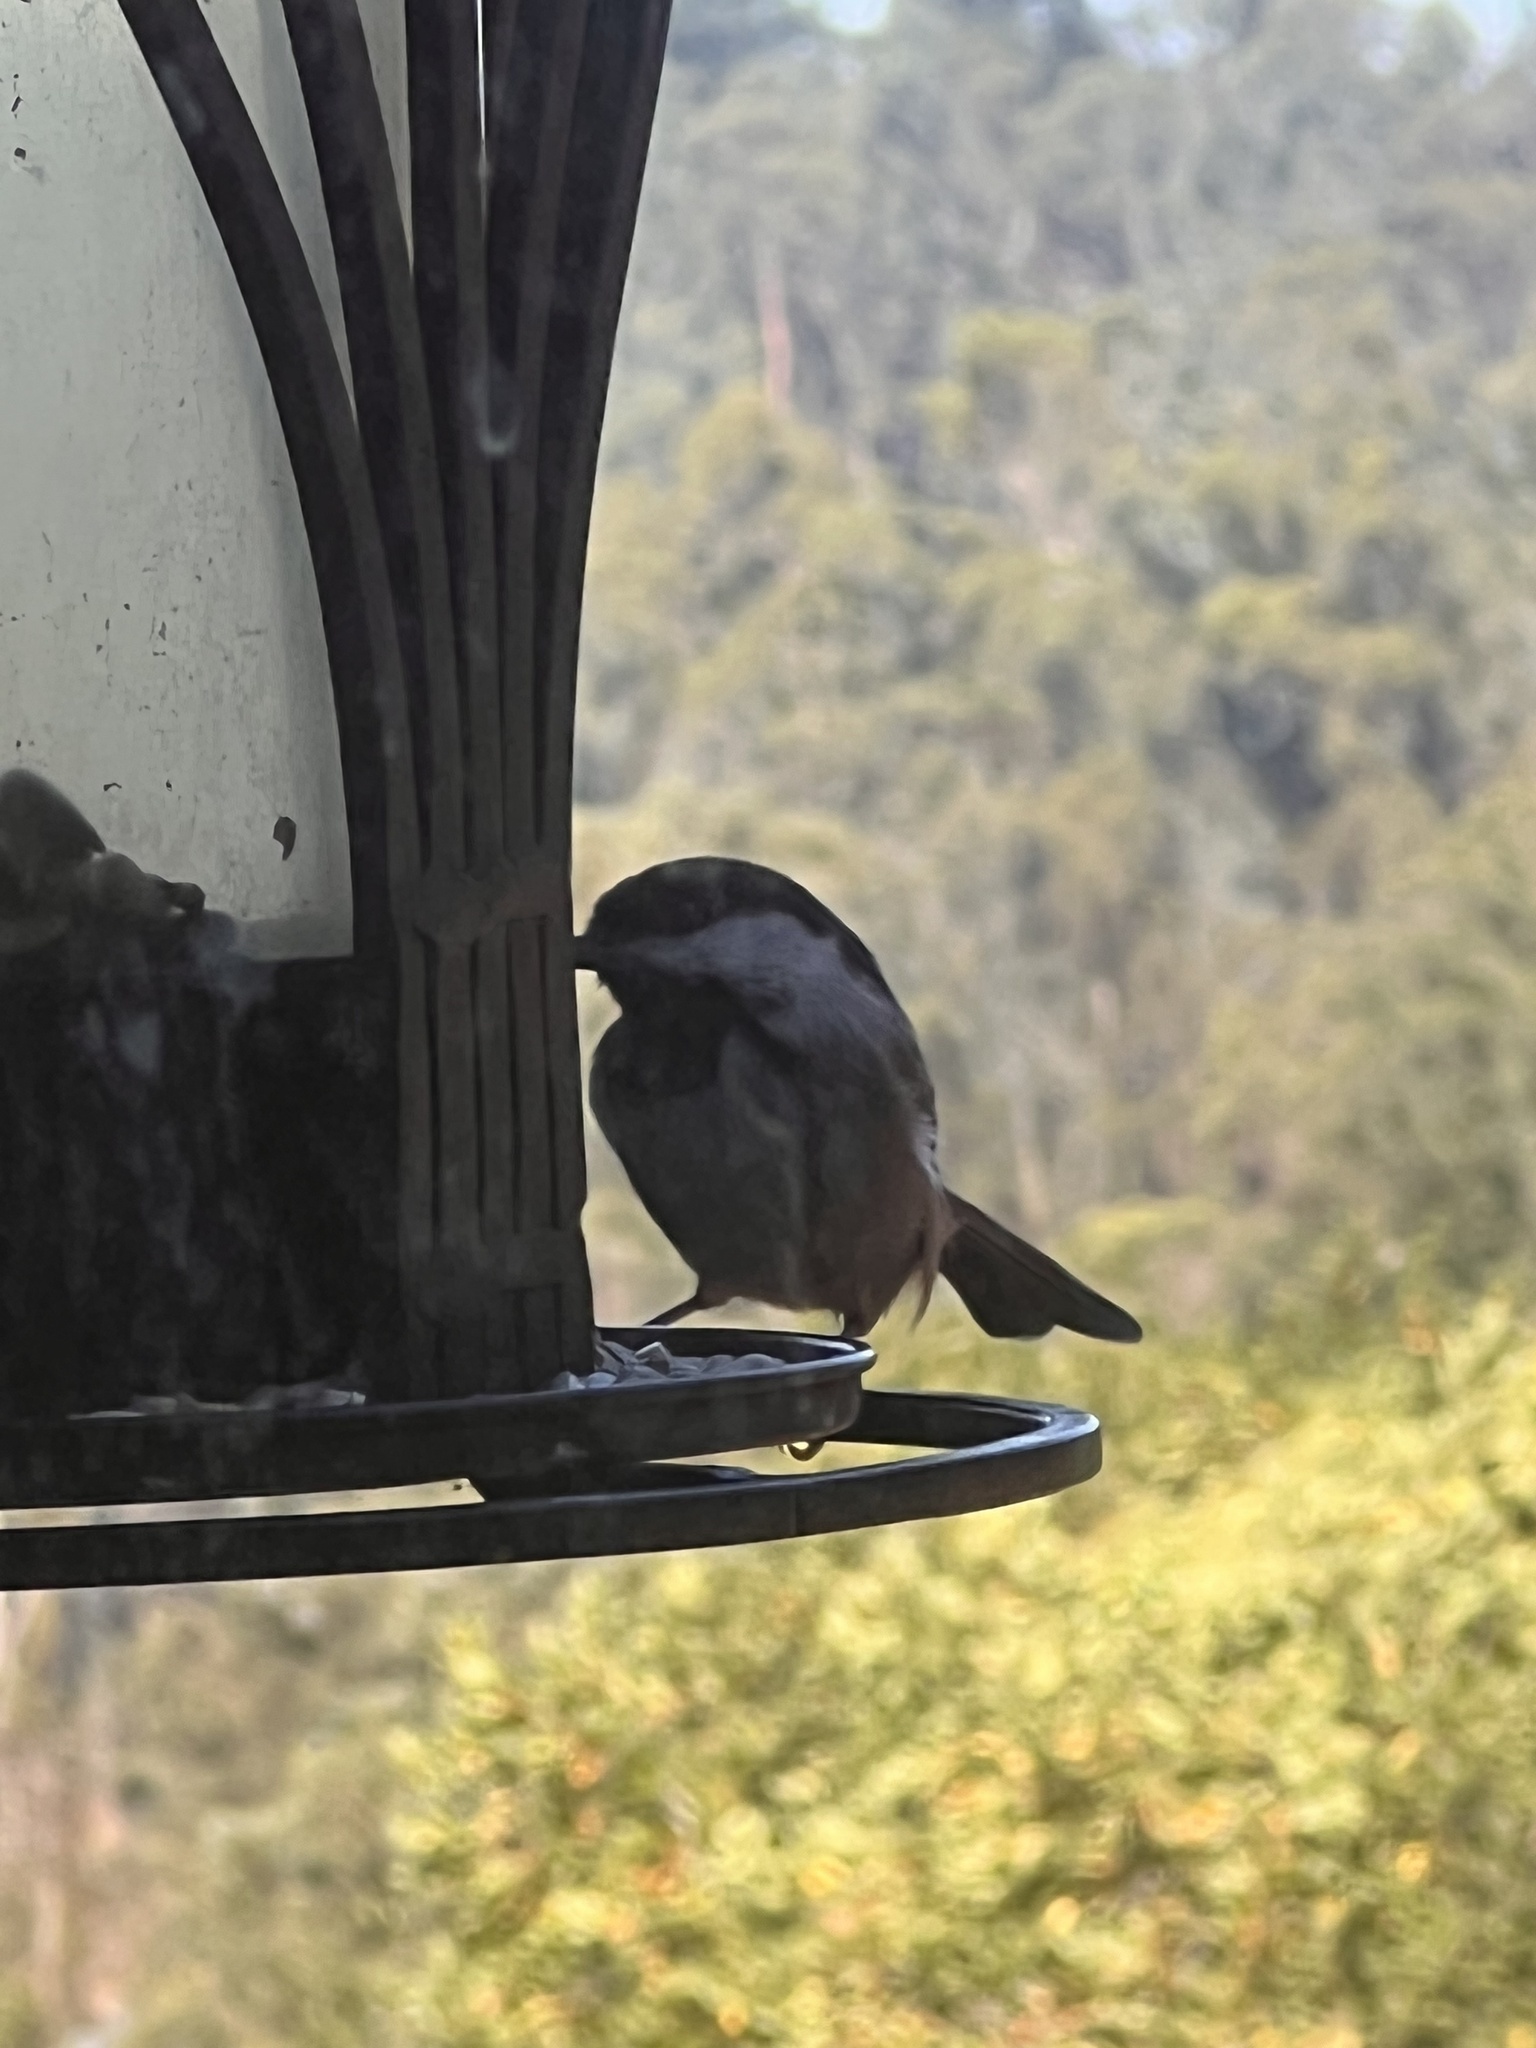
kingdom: Animalia
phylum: Chordata
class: Aves
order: Passeriformes
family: Paridae
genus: Poecile
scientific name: Poecile rufescens
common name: Chestnut-backed chickadee
